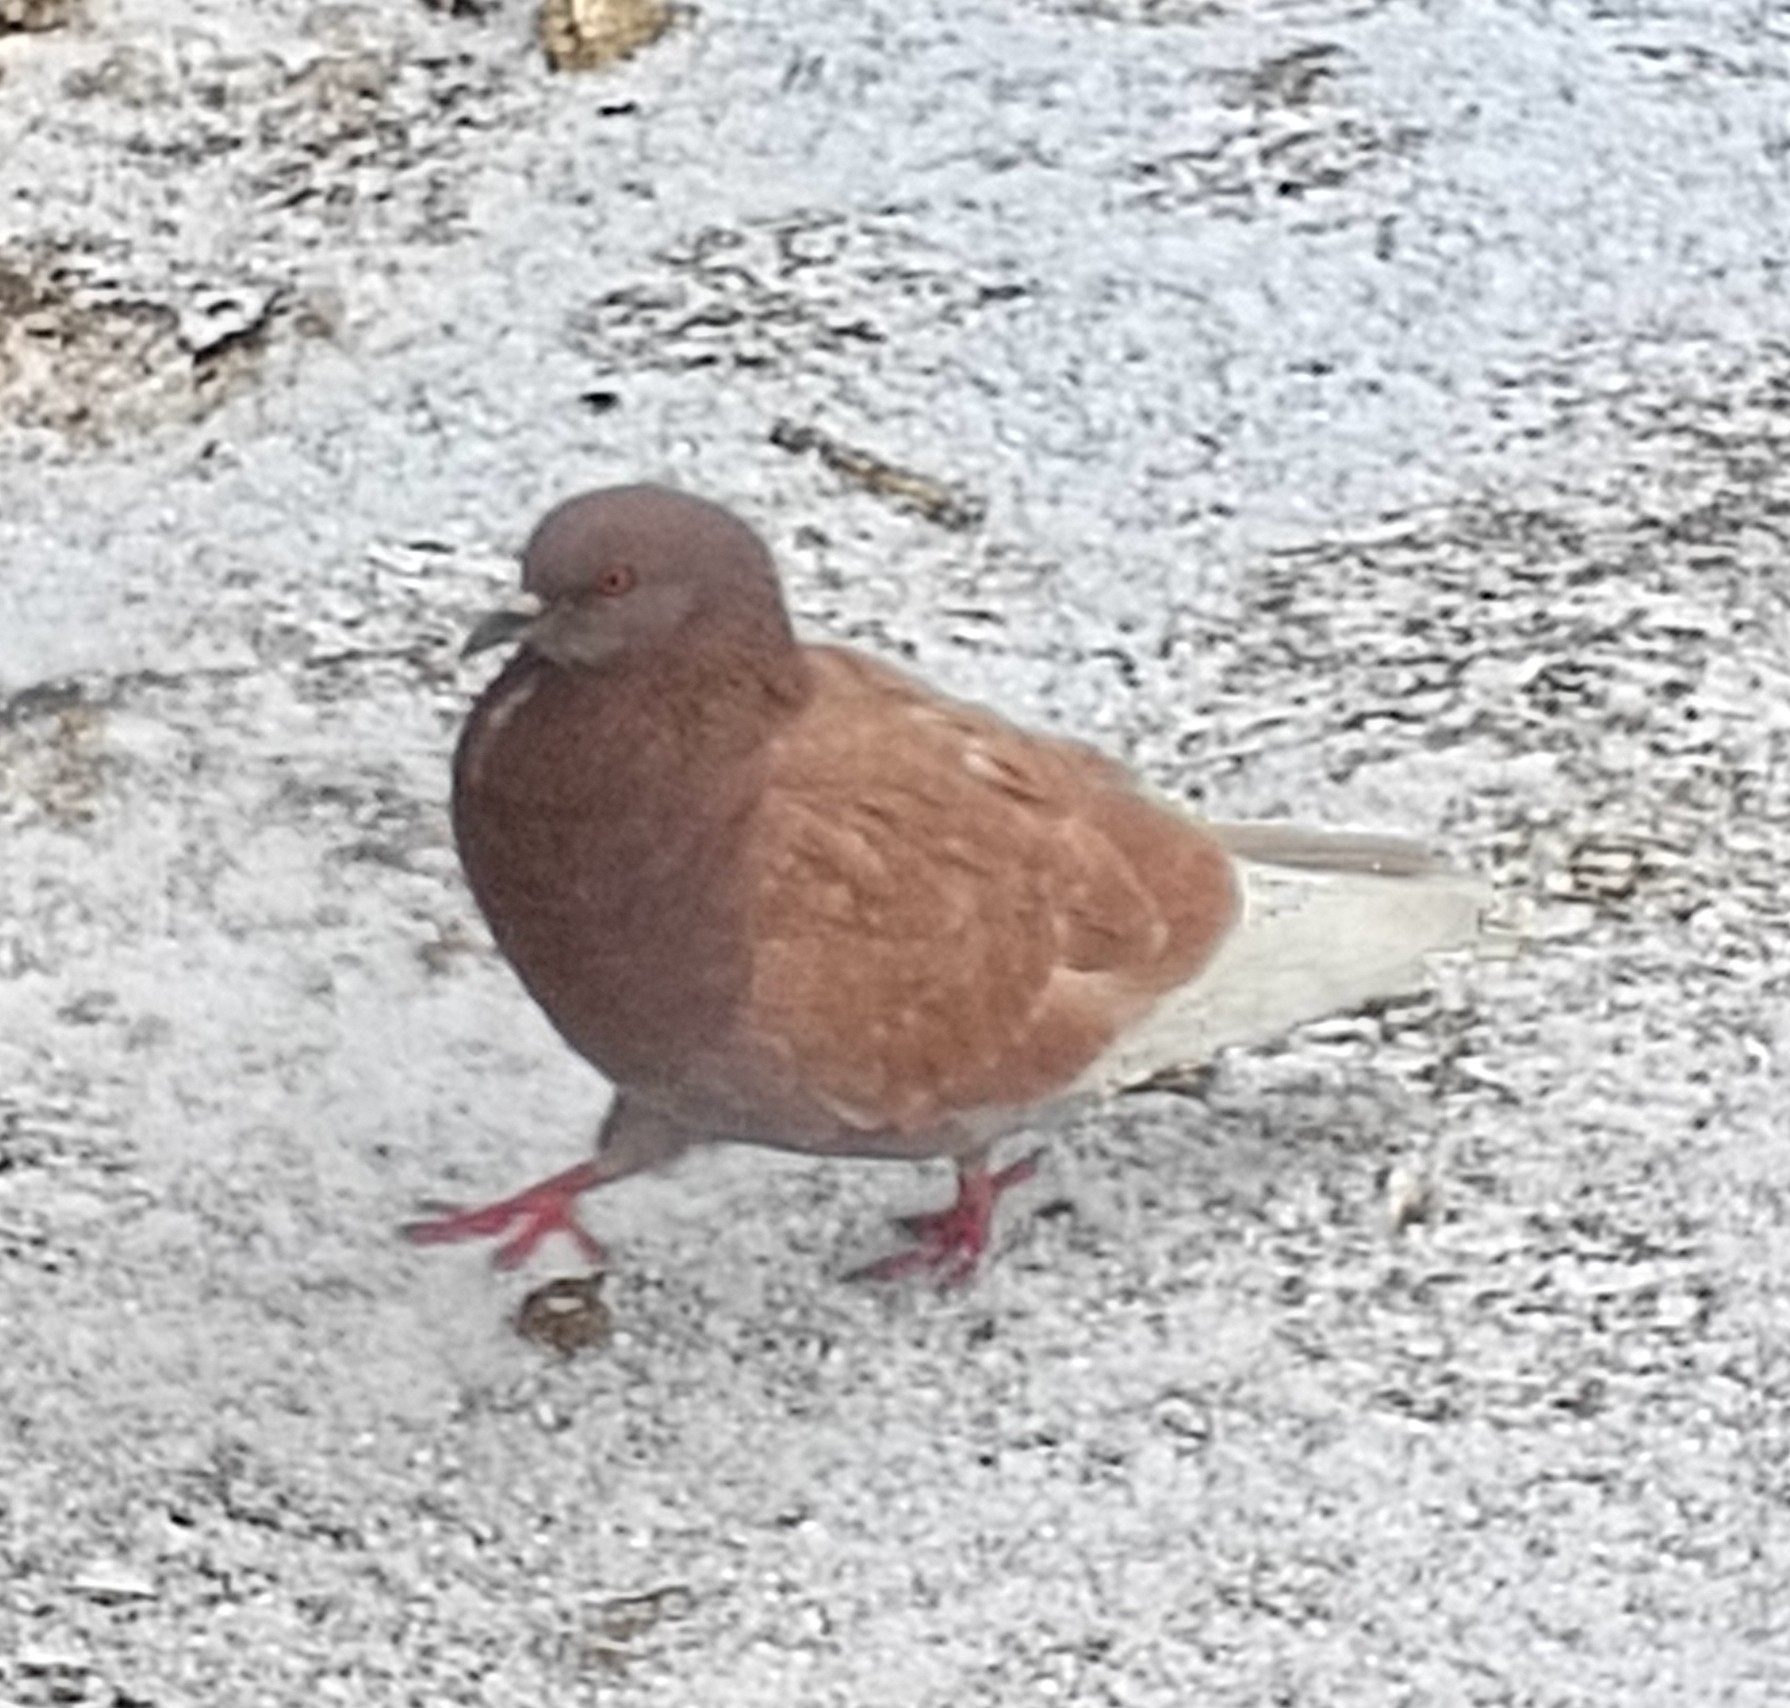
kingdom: Animalia
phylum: Chordata
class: Aves
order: Columbiformes
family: Columbidae
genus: Columba
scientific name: Columba livia
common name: Rock pigeon
